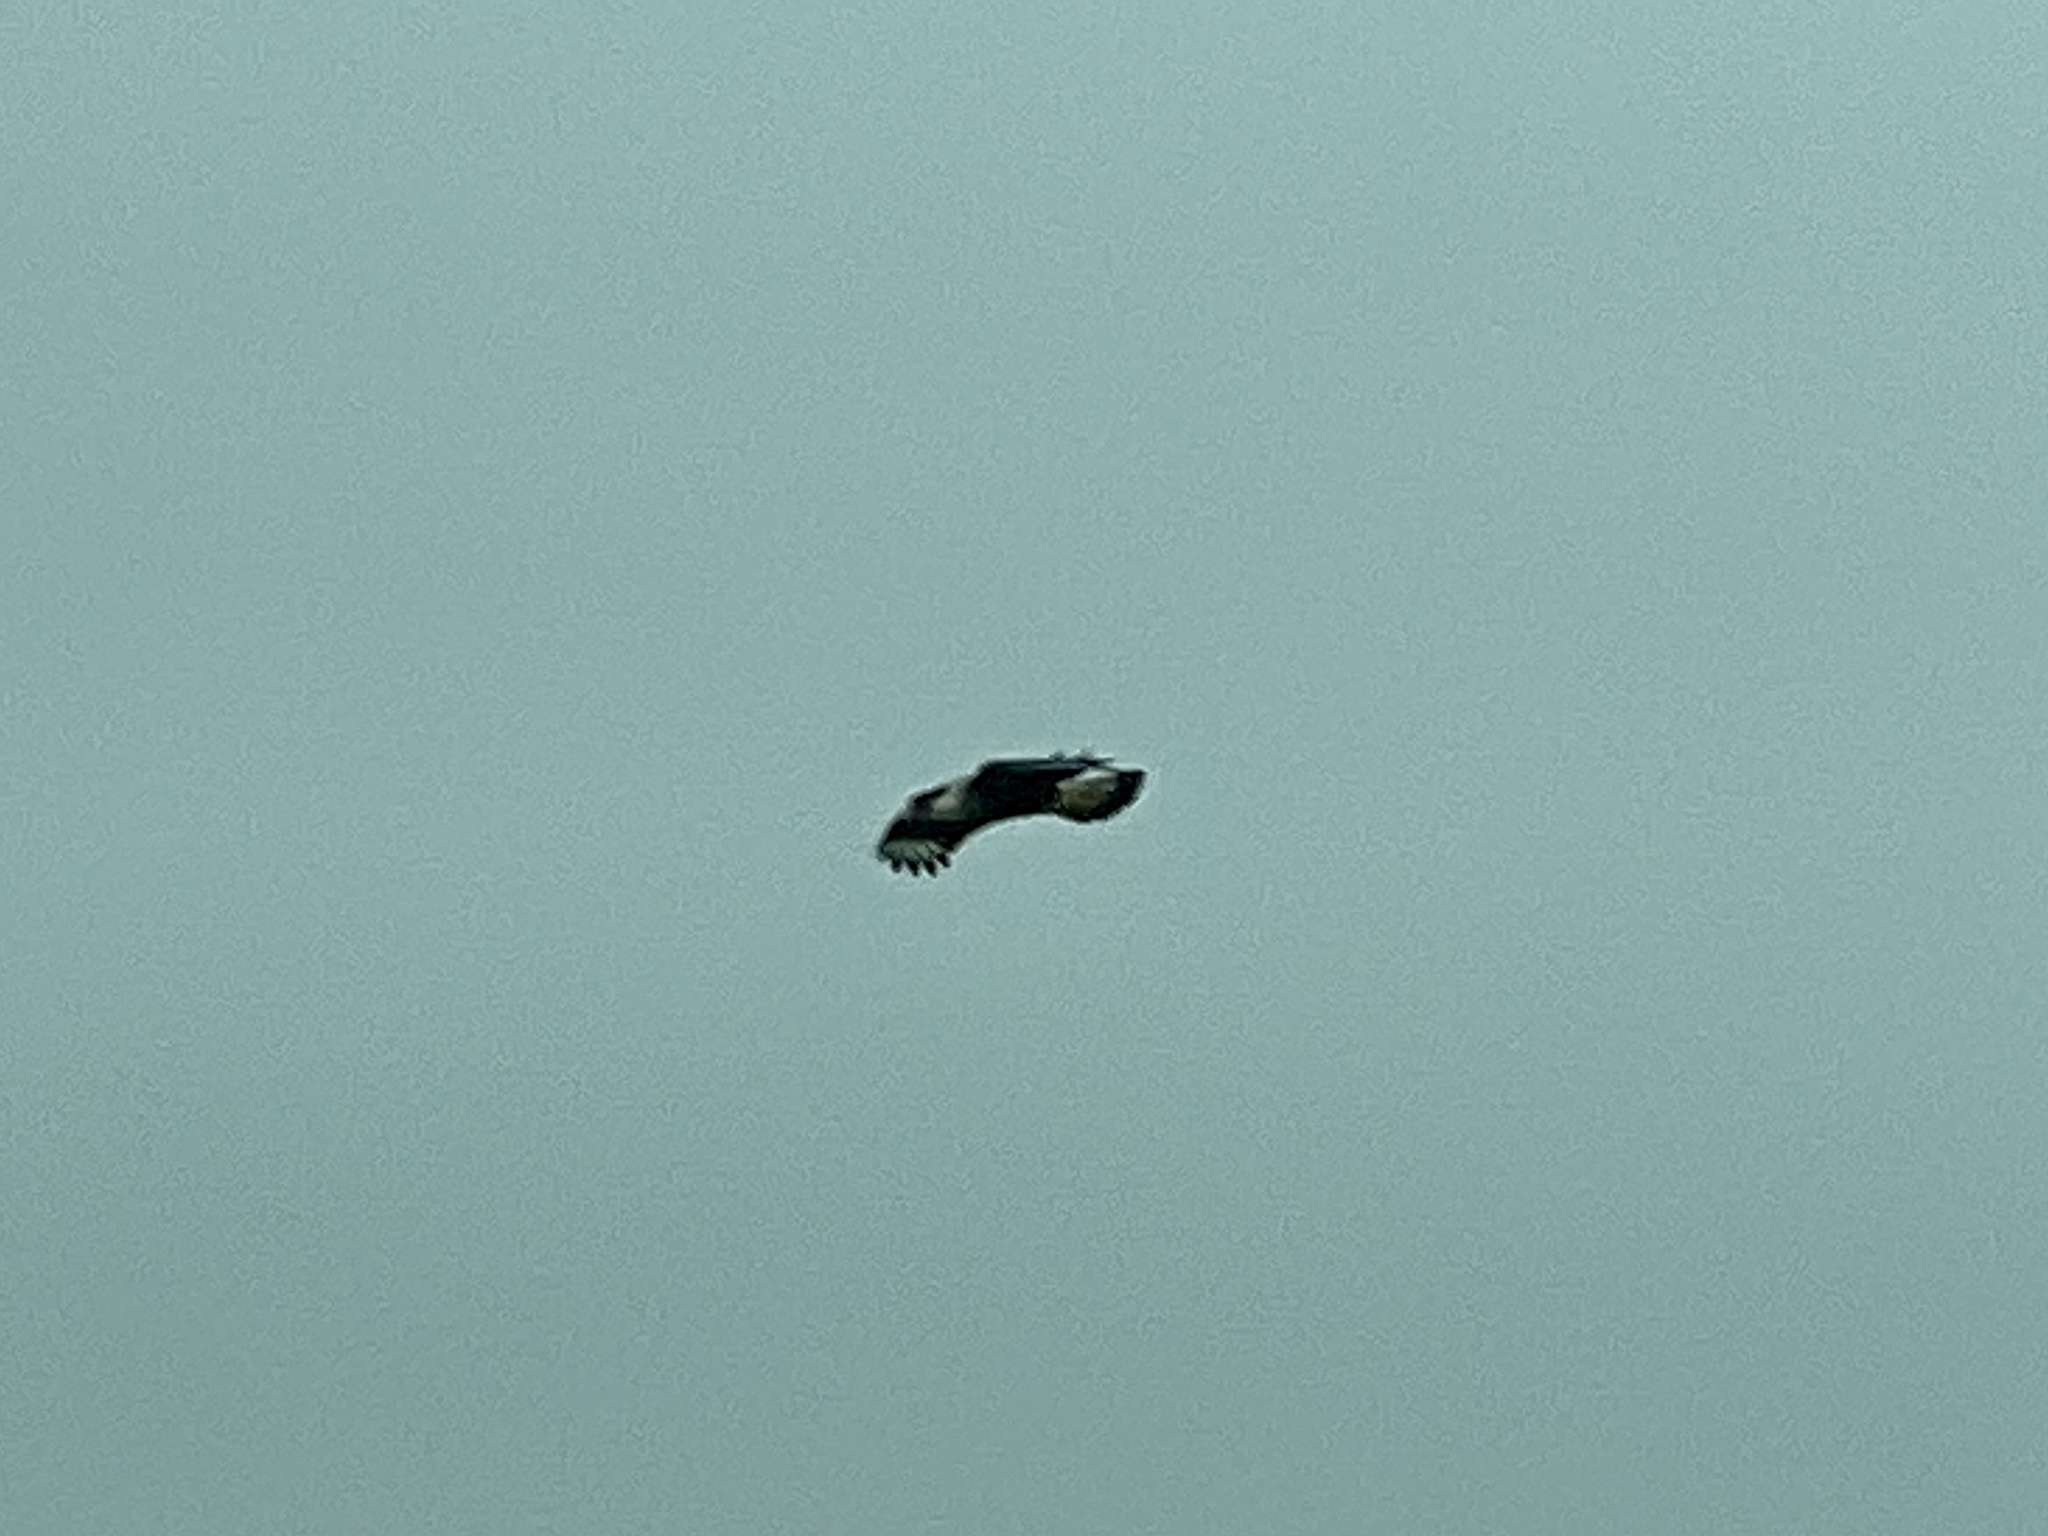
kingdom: Animalia
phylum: Chordata
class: Aves
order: Falconiformes
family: Falconidae
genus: Caracara
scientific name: Caracara plancus
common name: Southern caracara
